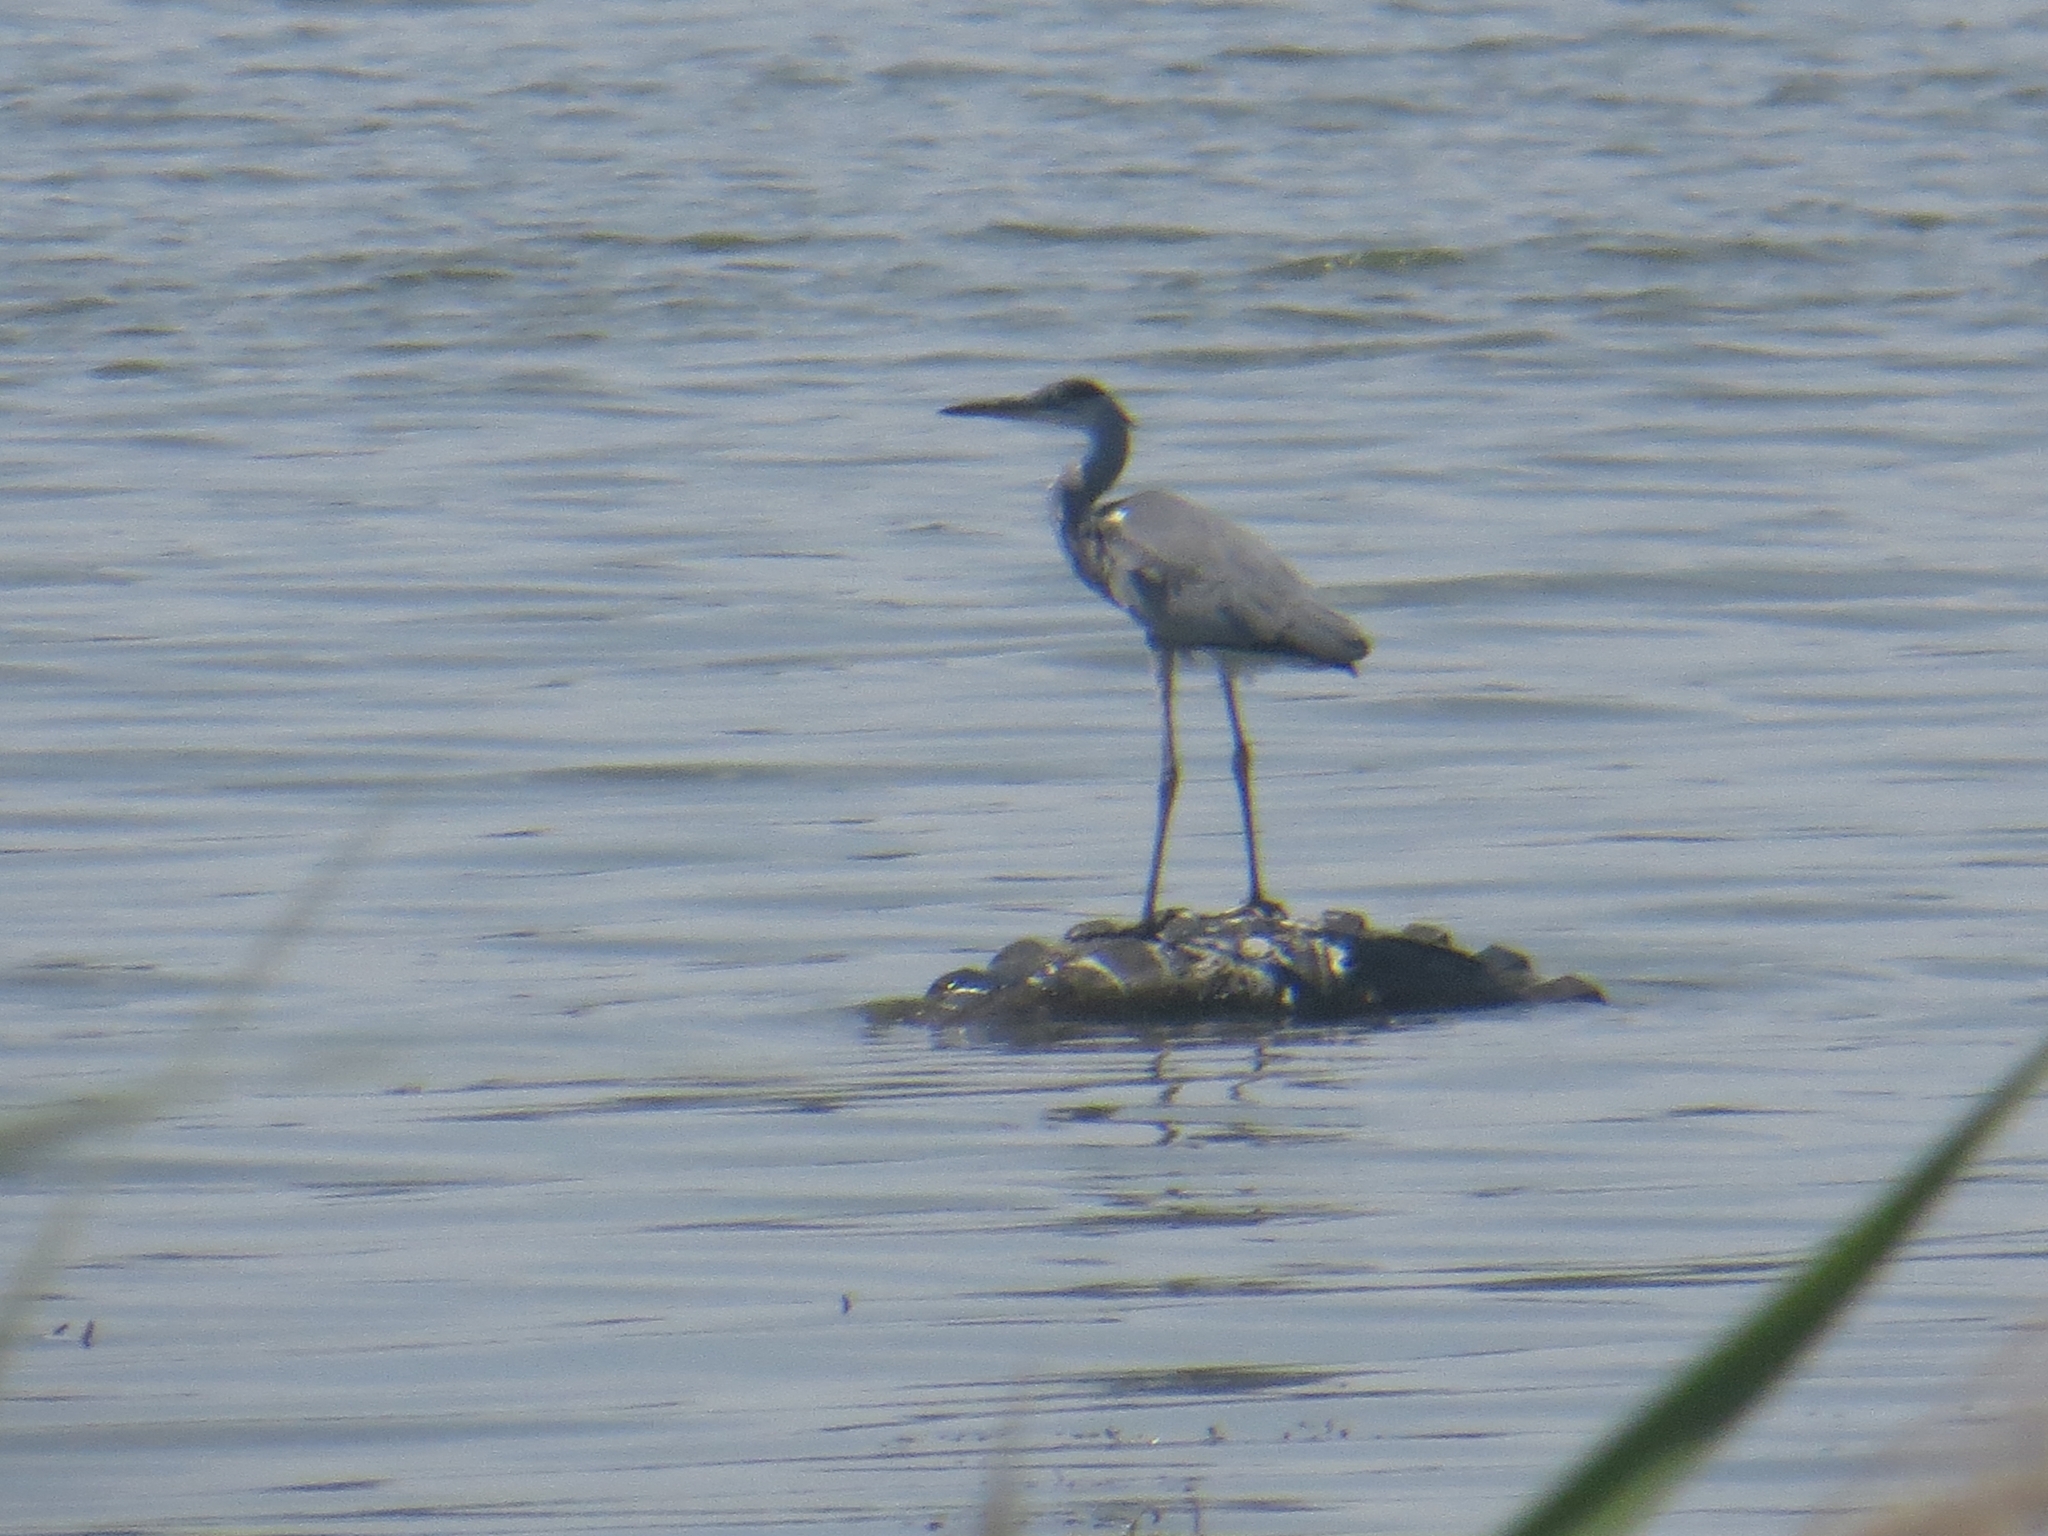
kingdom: Animalia
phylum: Chordata
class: Aves
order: Pelecaniformes
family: Ardeidae
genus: Ardea
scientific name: Ardea cinerea
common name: Grey heron
